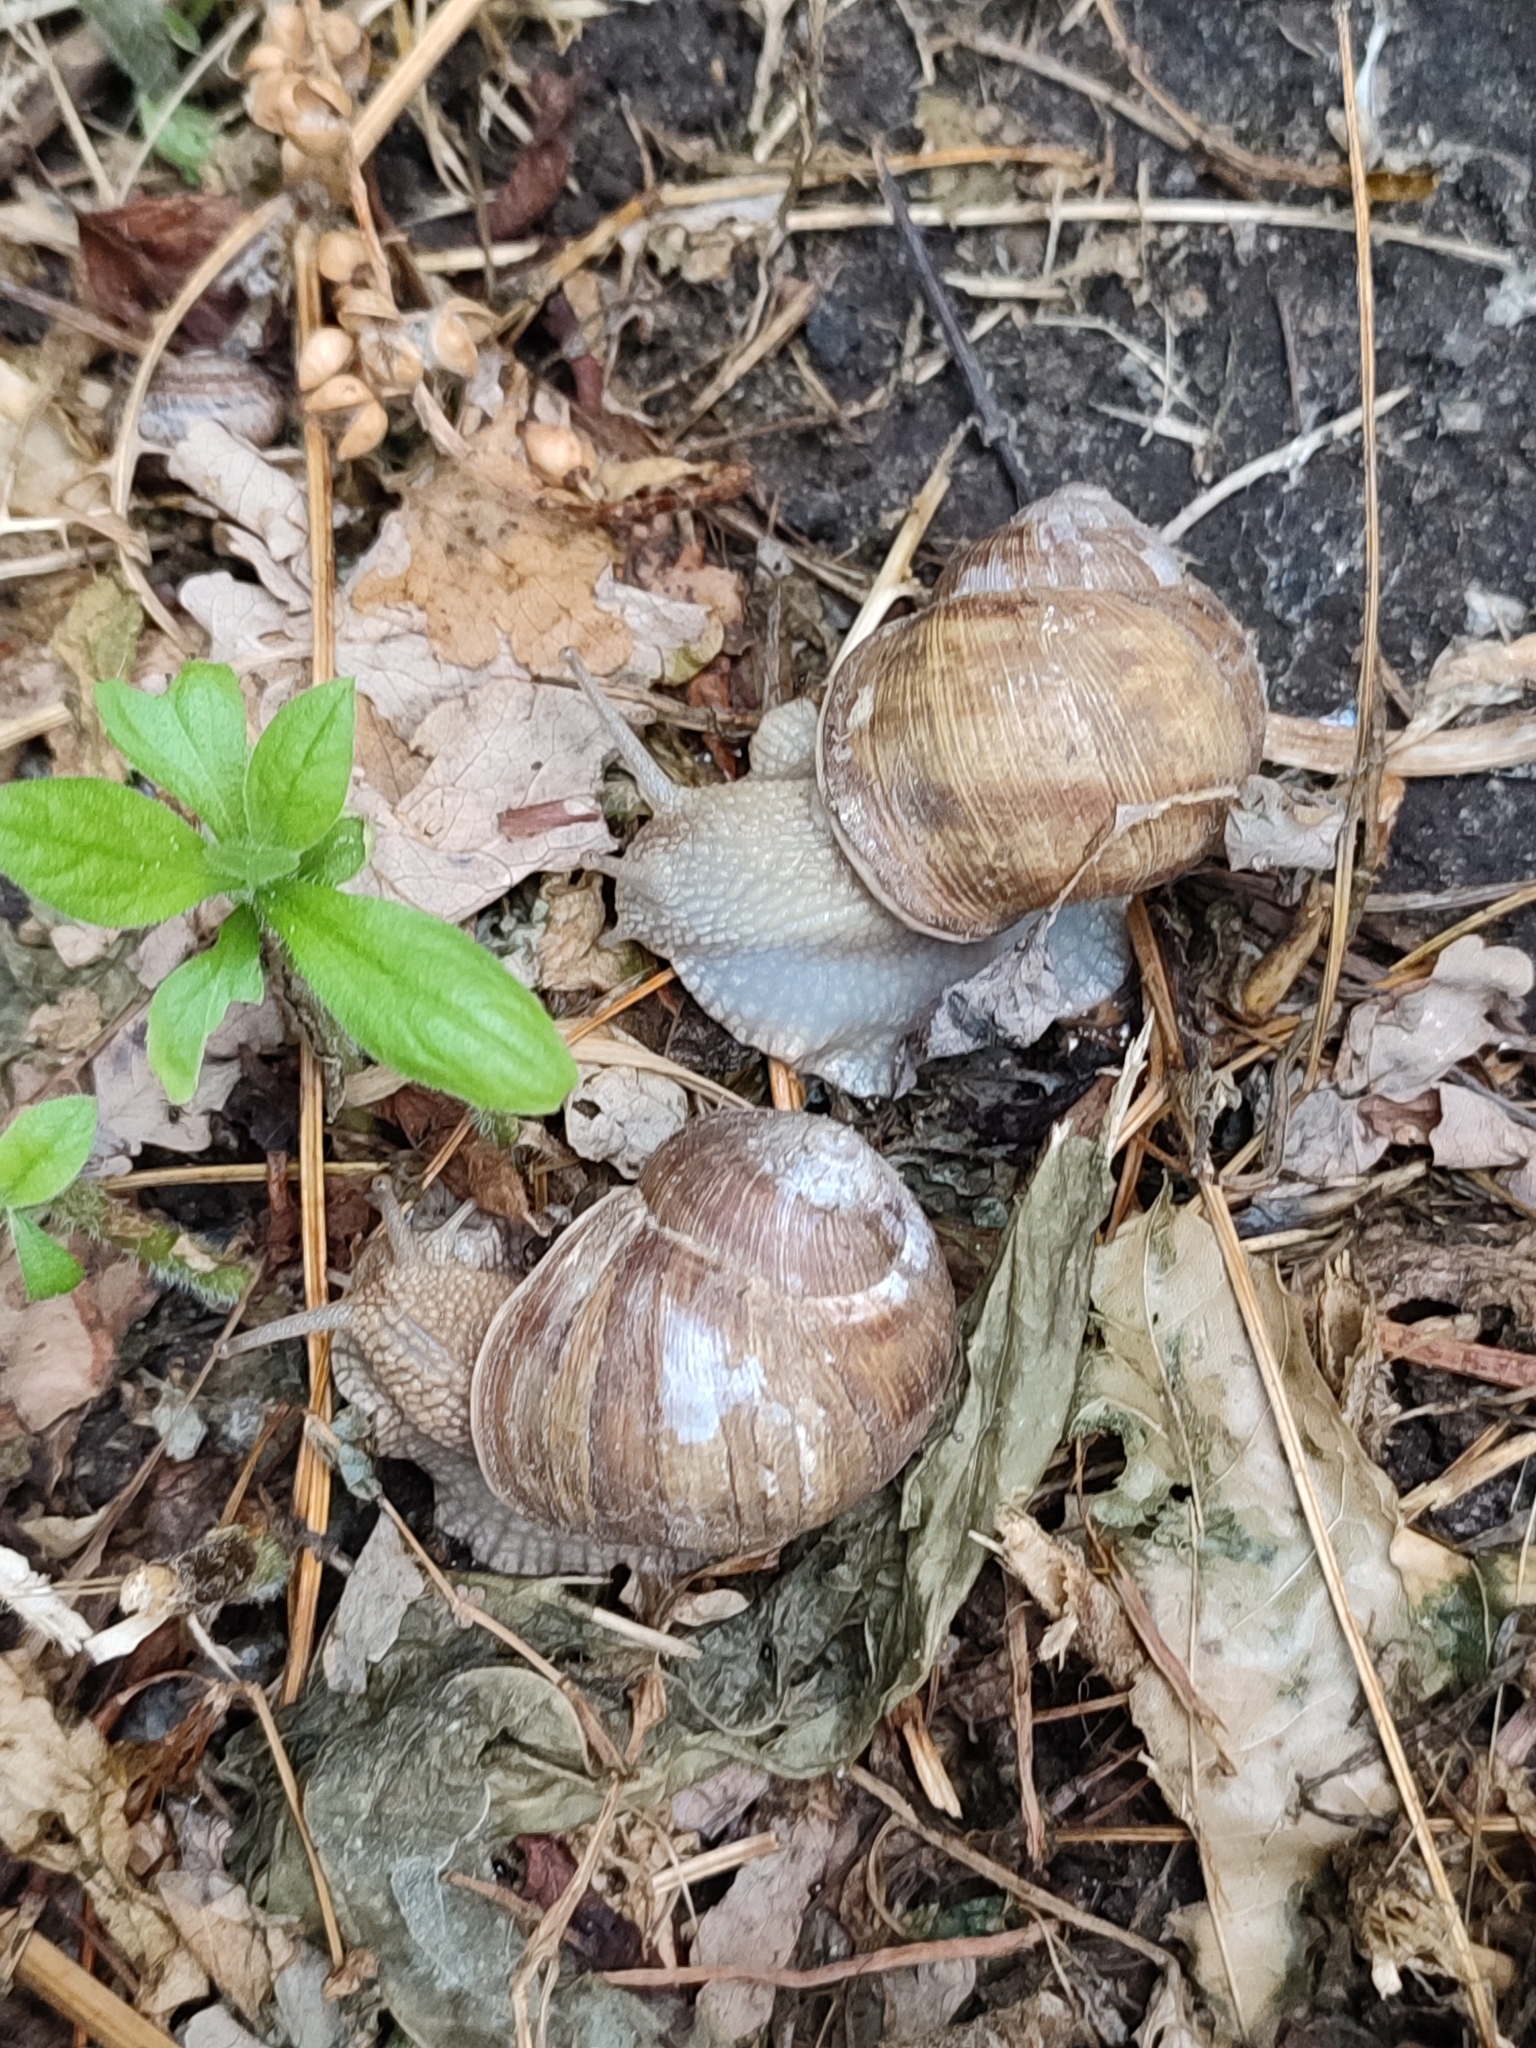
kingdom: Animalia
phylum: Mollusca
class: Gastropoda
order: Stylommatophora
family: Helicidae
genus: Helix
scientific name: Helix pomatia
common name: Roman snail
